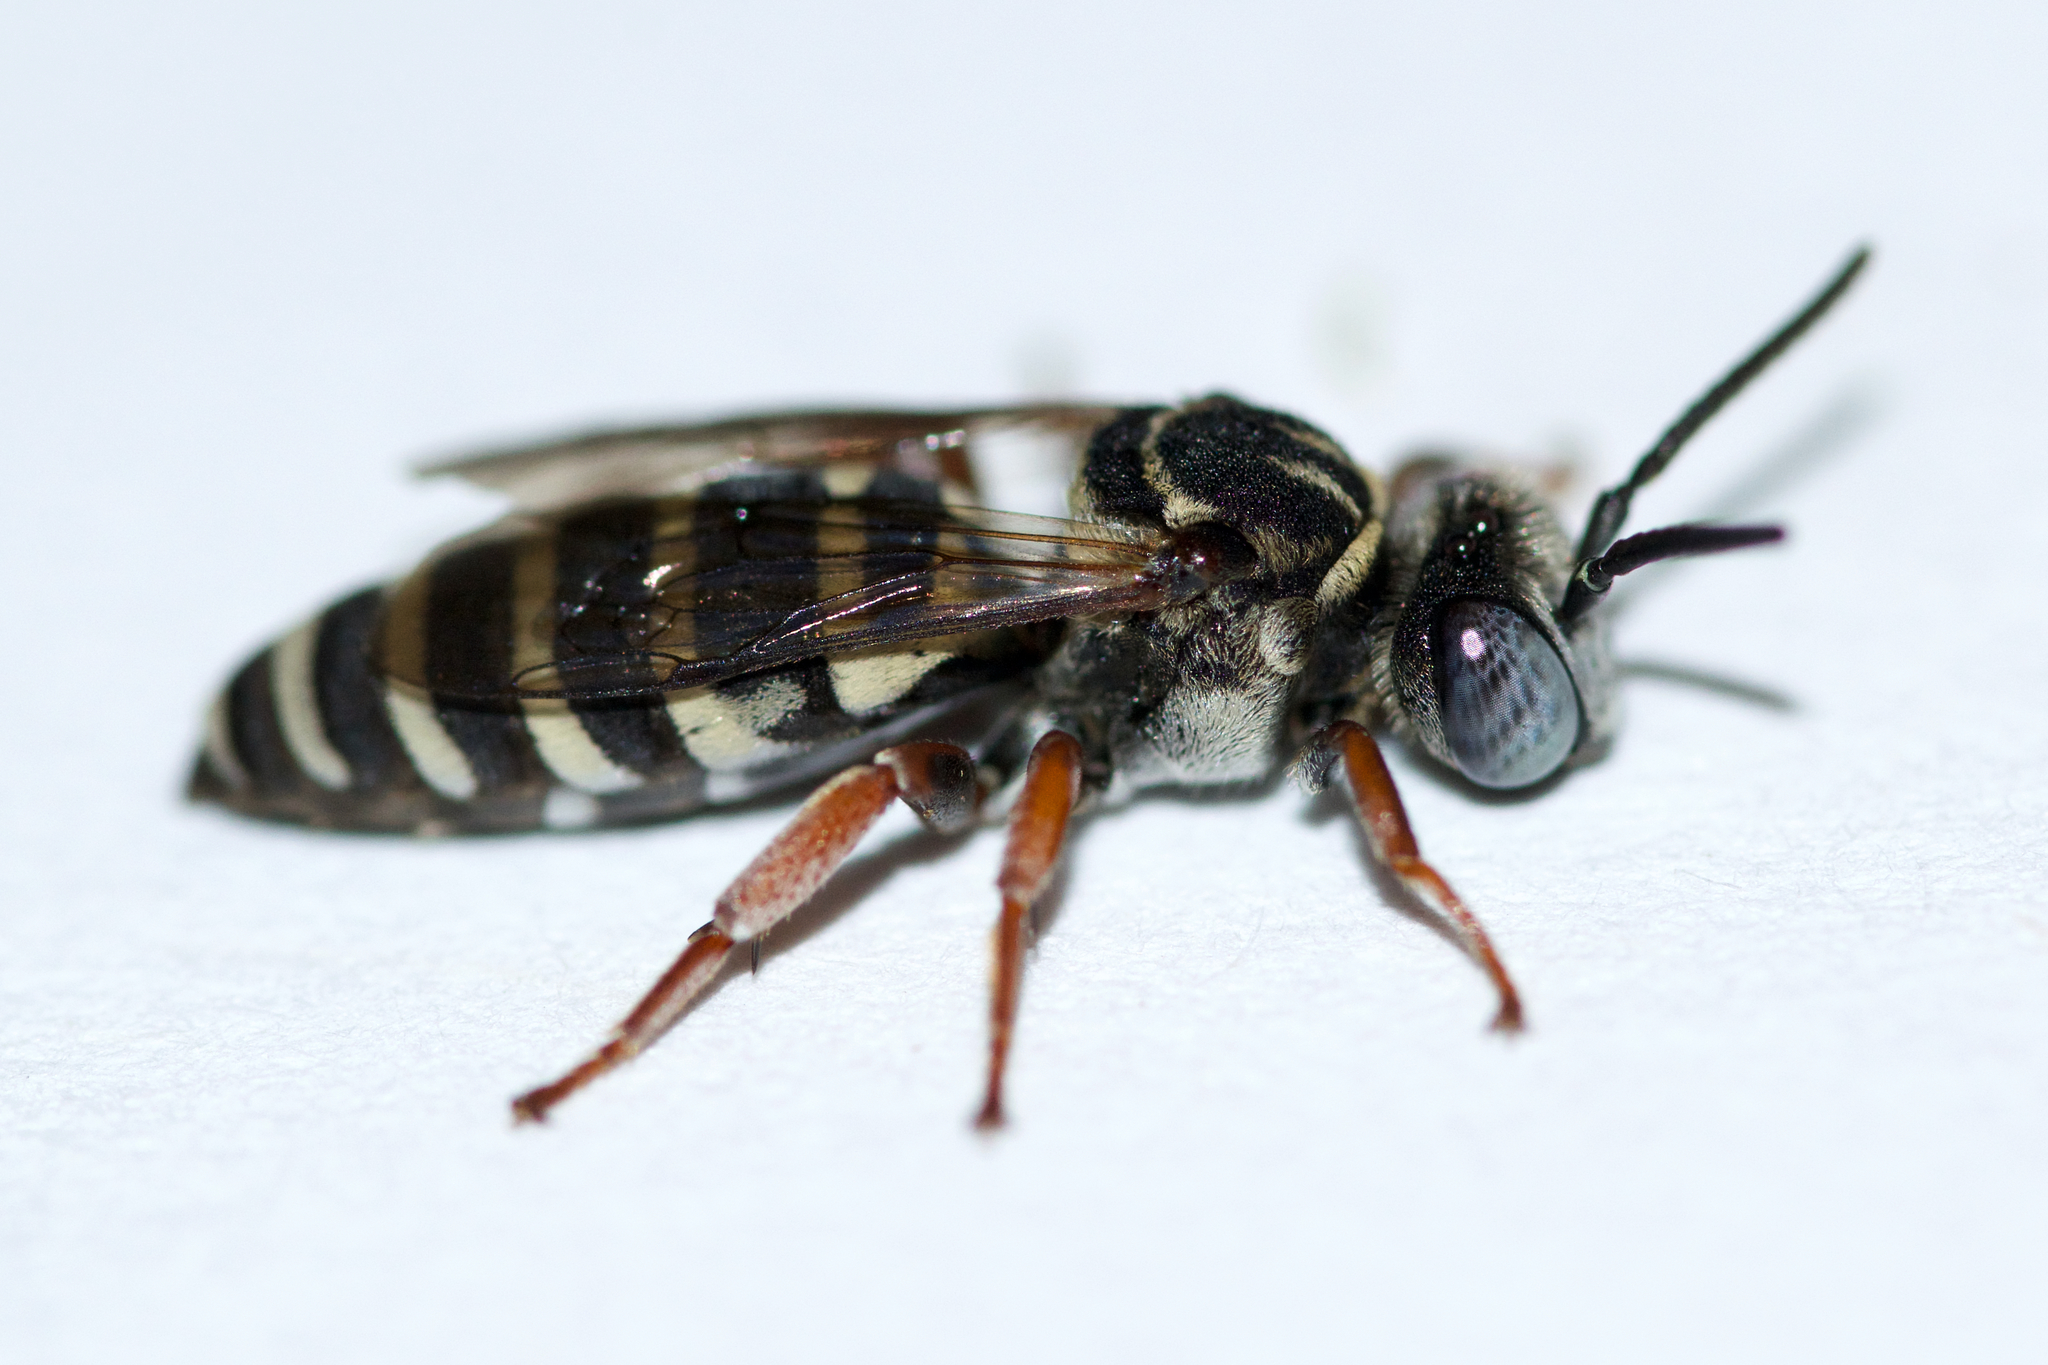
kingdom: Animalia
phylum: Arthropoda
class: Insecta
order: Hymenoptera
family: Apidae
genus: Triepeolus
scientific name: Triepeolus pectoralis
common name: Goldenrod longhorn-cuckoo bee
